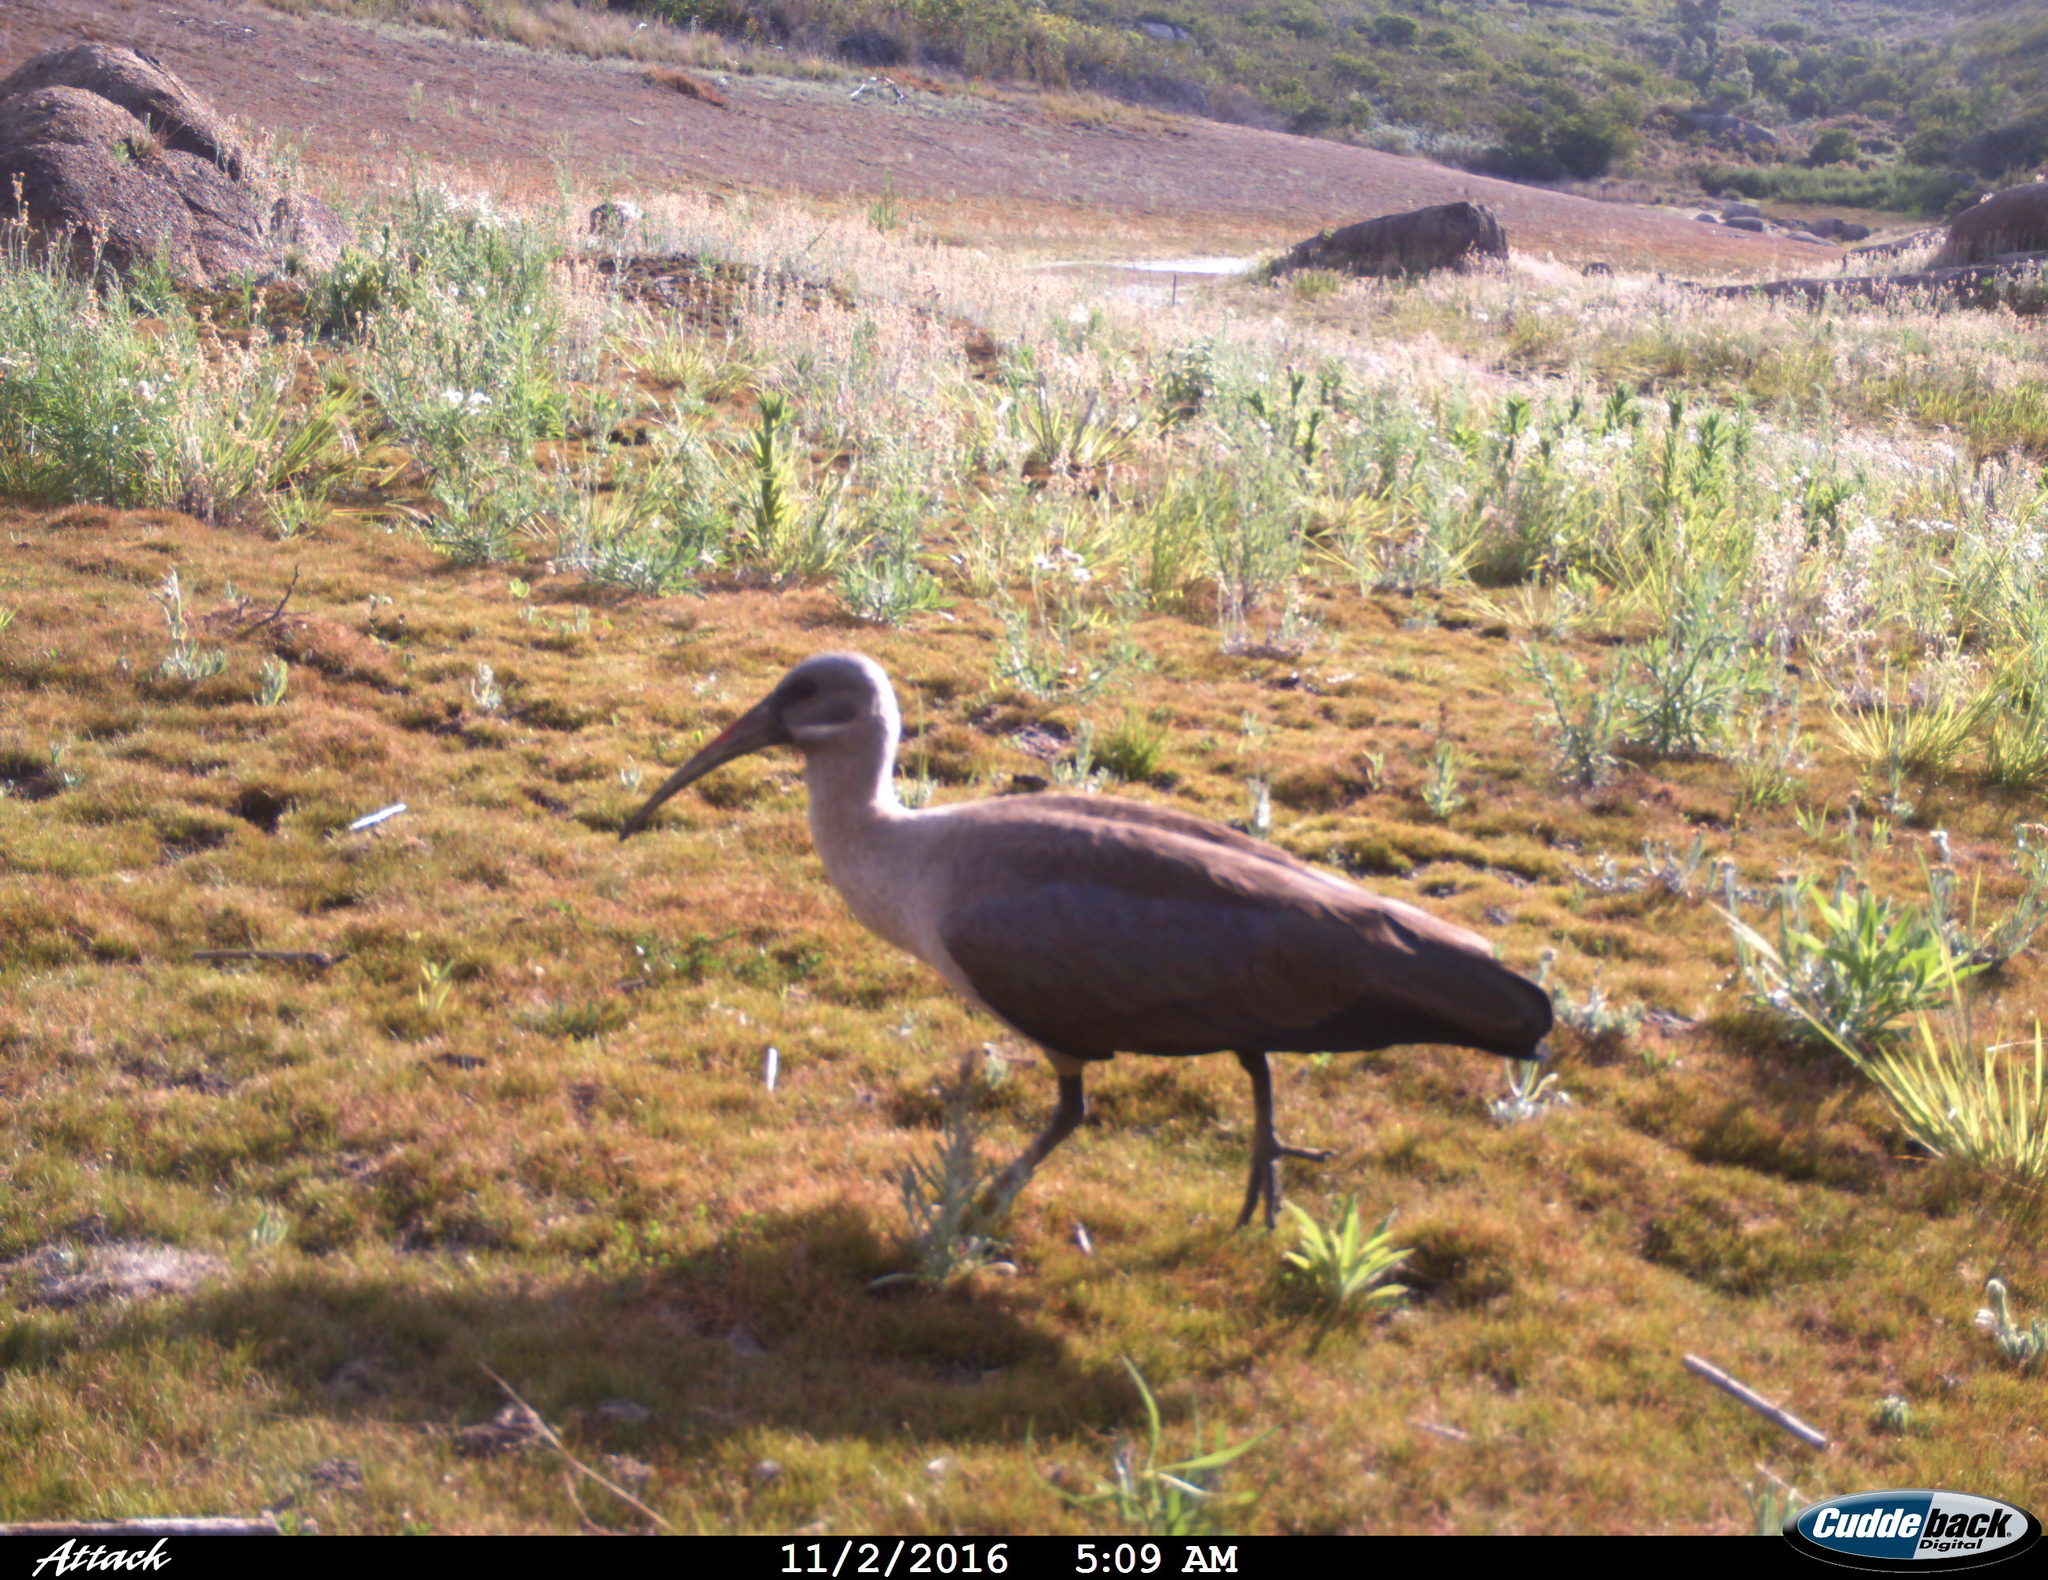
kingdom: Animalia
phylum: Chordata
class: Aves
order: Pelecaniformes
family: Threskiornithidae
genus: Bostrychia
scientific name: Bostrychia hagedash
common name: Hadada ibis
